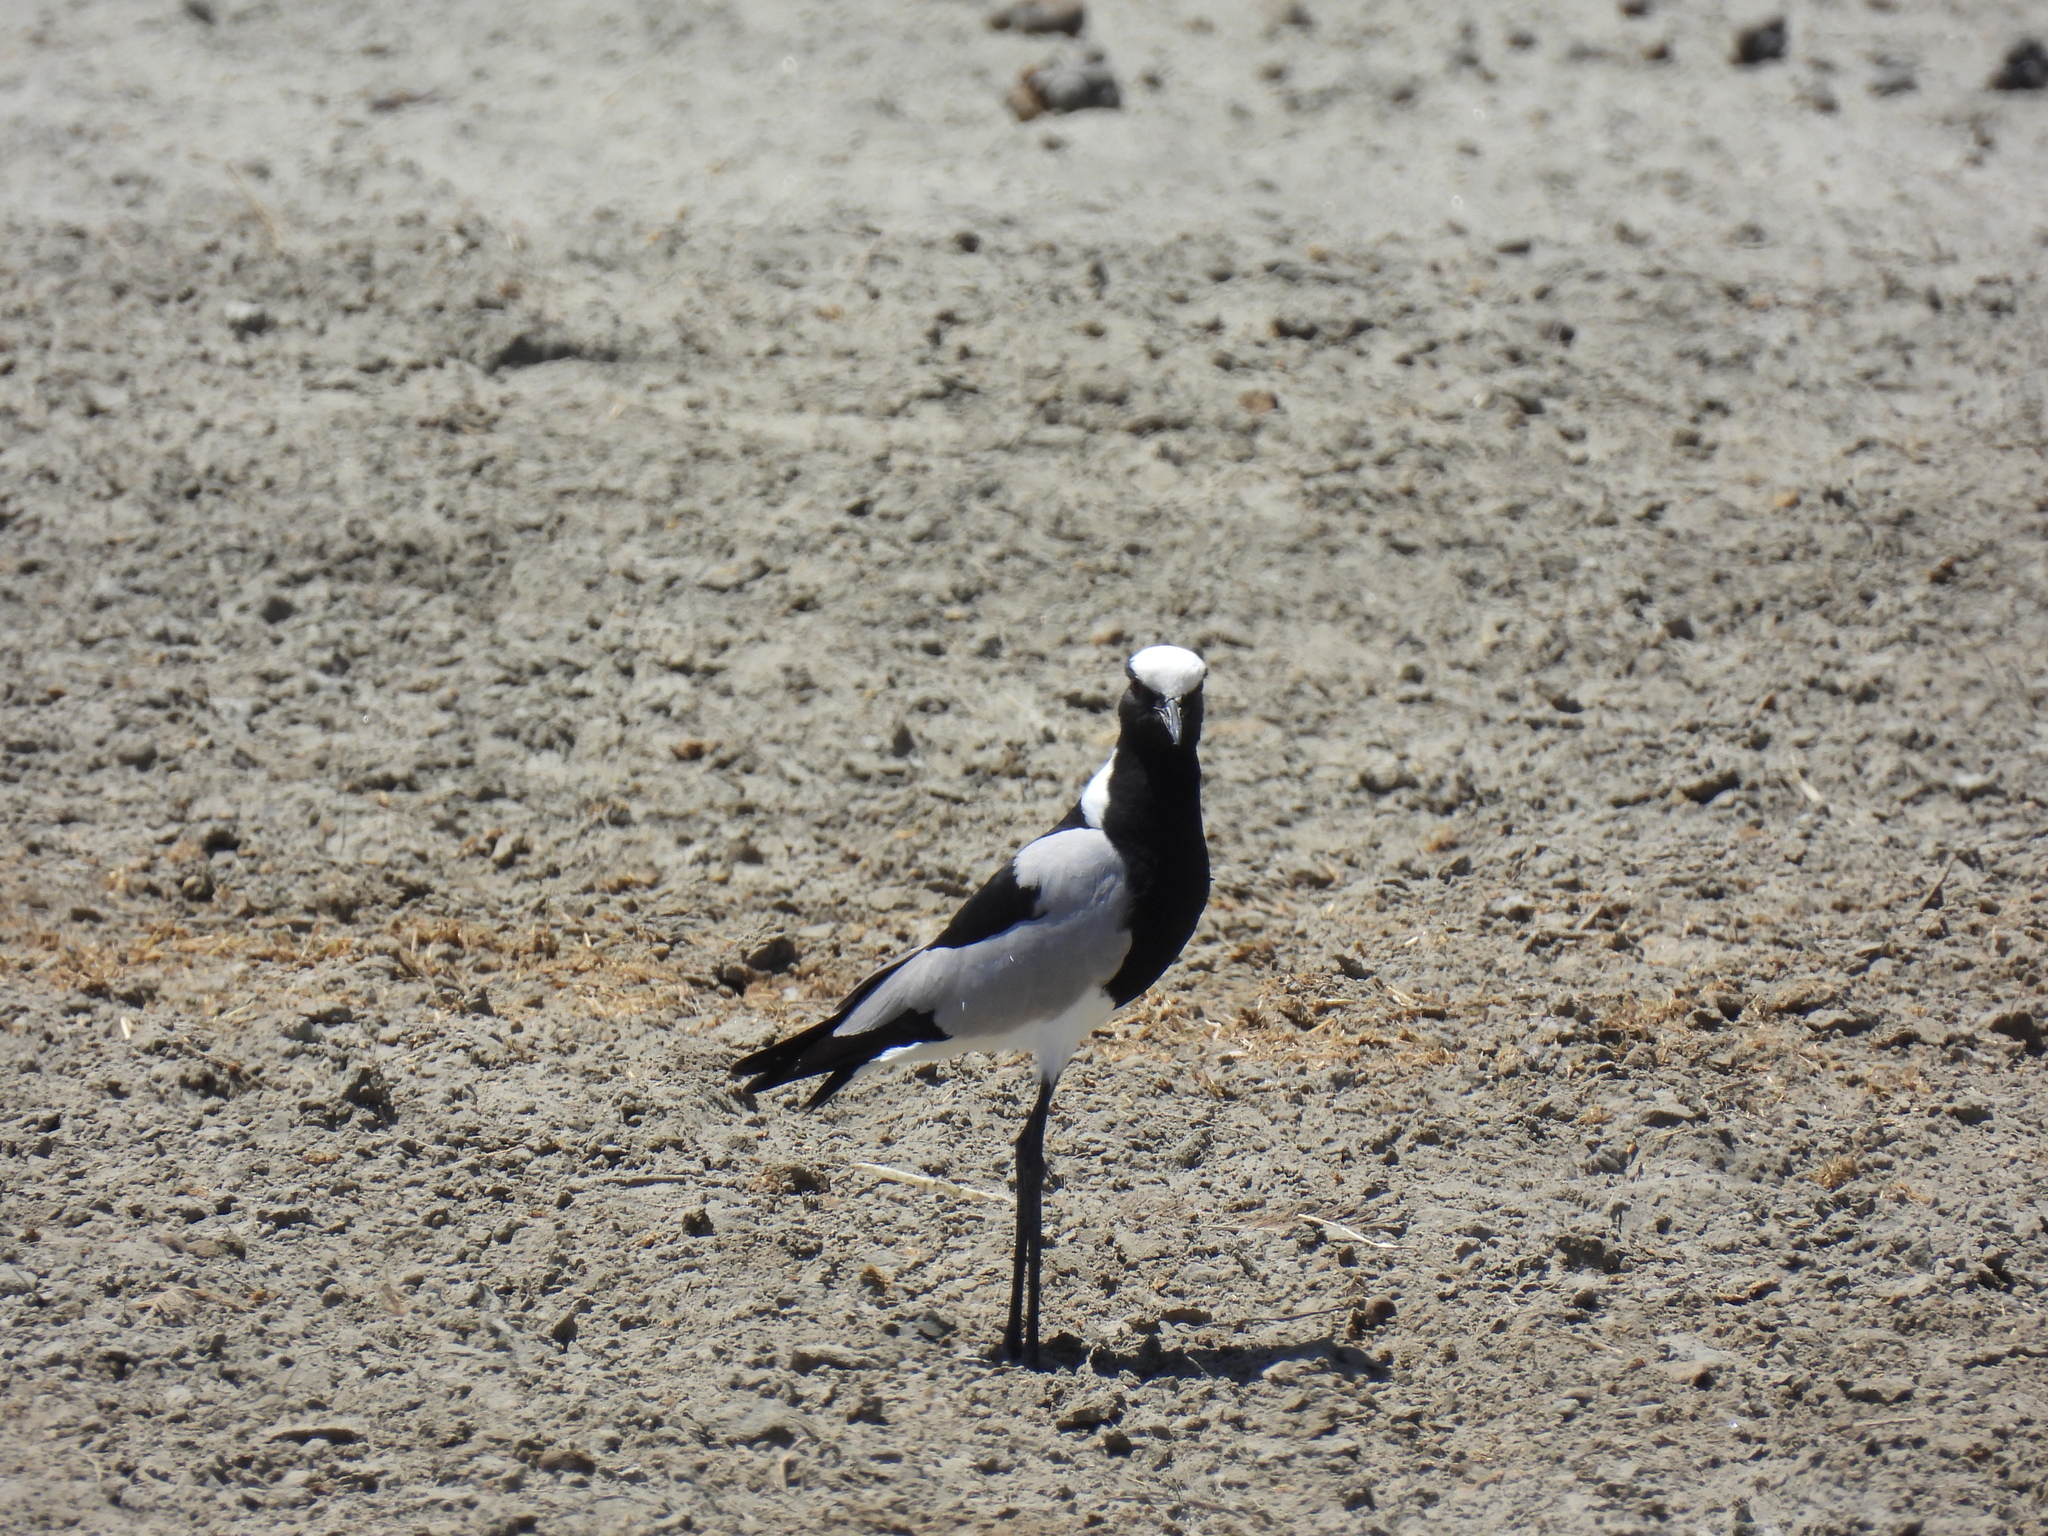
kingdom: Animalia
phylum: Chordata
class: Aves
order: Charadriiformes
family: Charadriidae
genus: Vanellus
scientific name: Vanellus armatus
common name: Blacksmith lapwing
